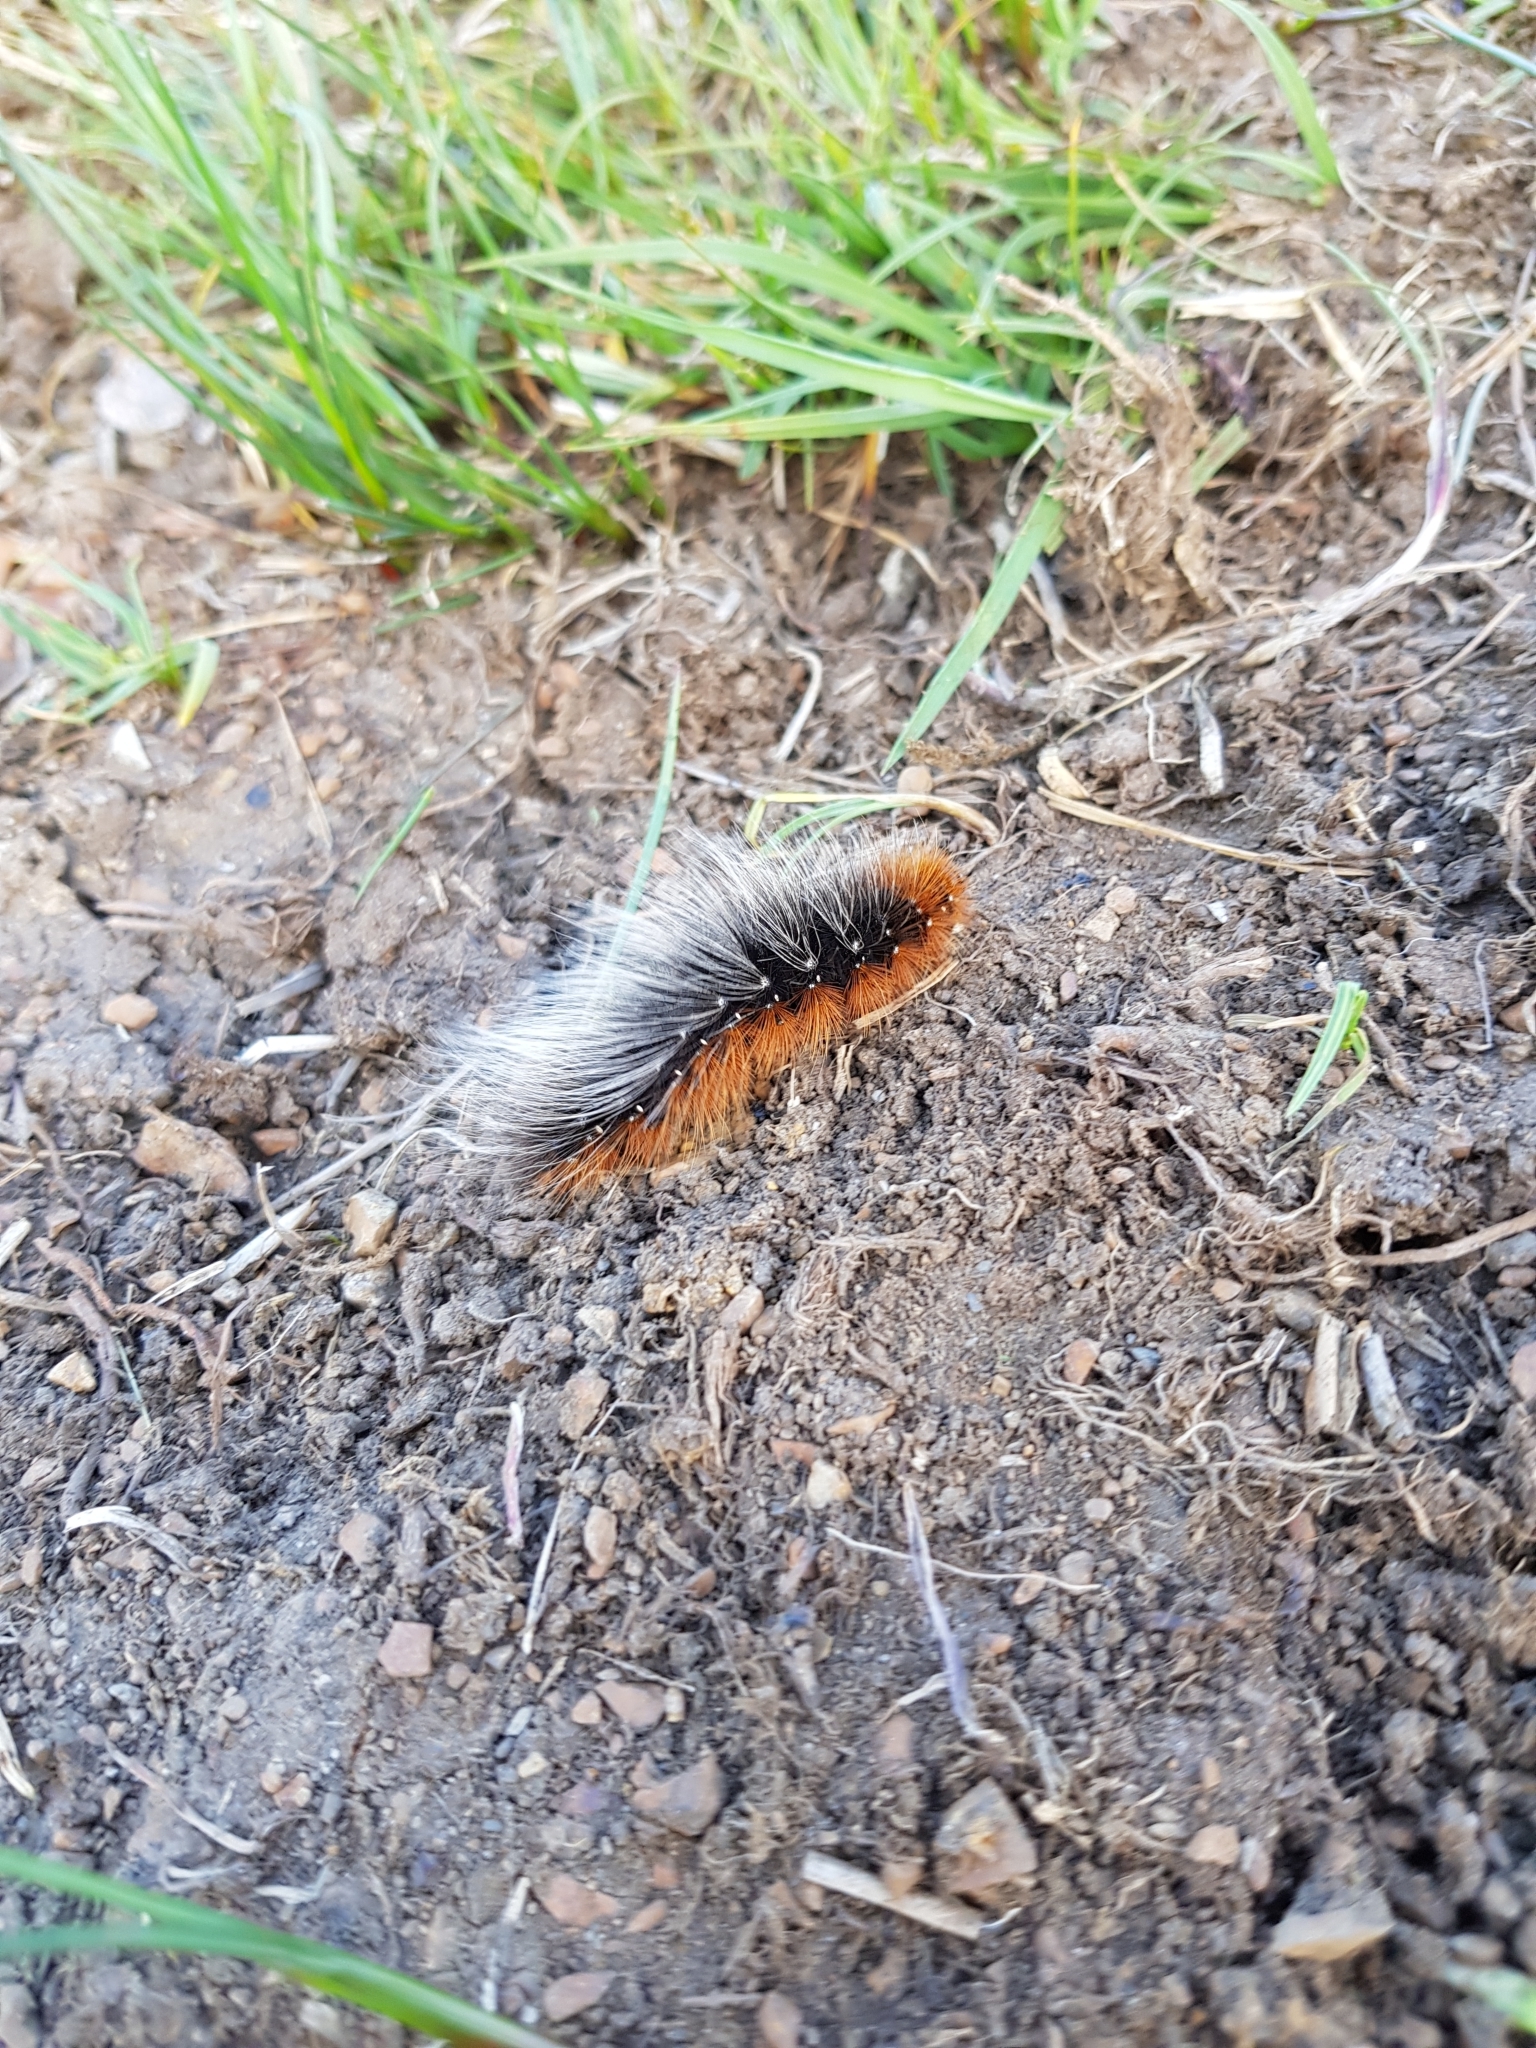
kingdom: Animalia
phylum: Arthropoda
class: Insecta
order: Lepidoptera
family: Erebidae
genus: Arctia
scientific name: Arctia caja
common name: Garden tiger
